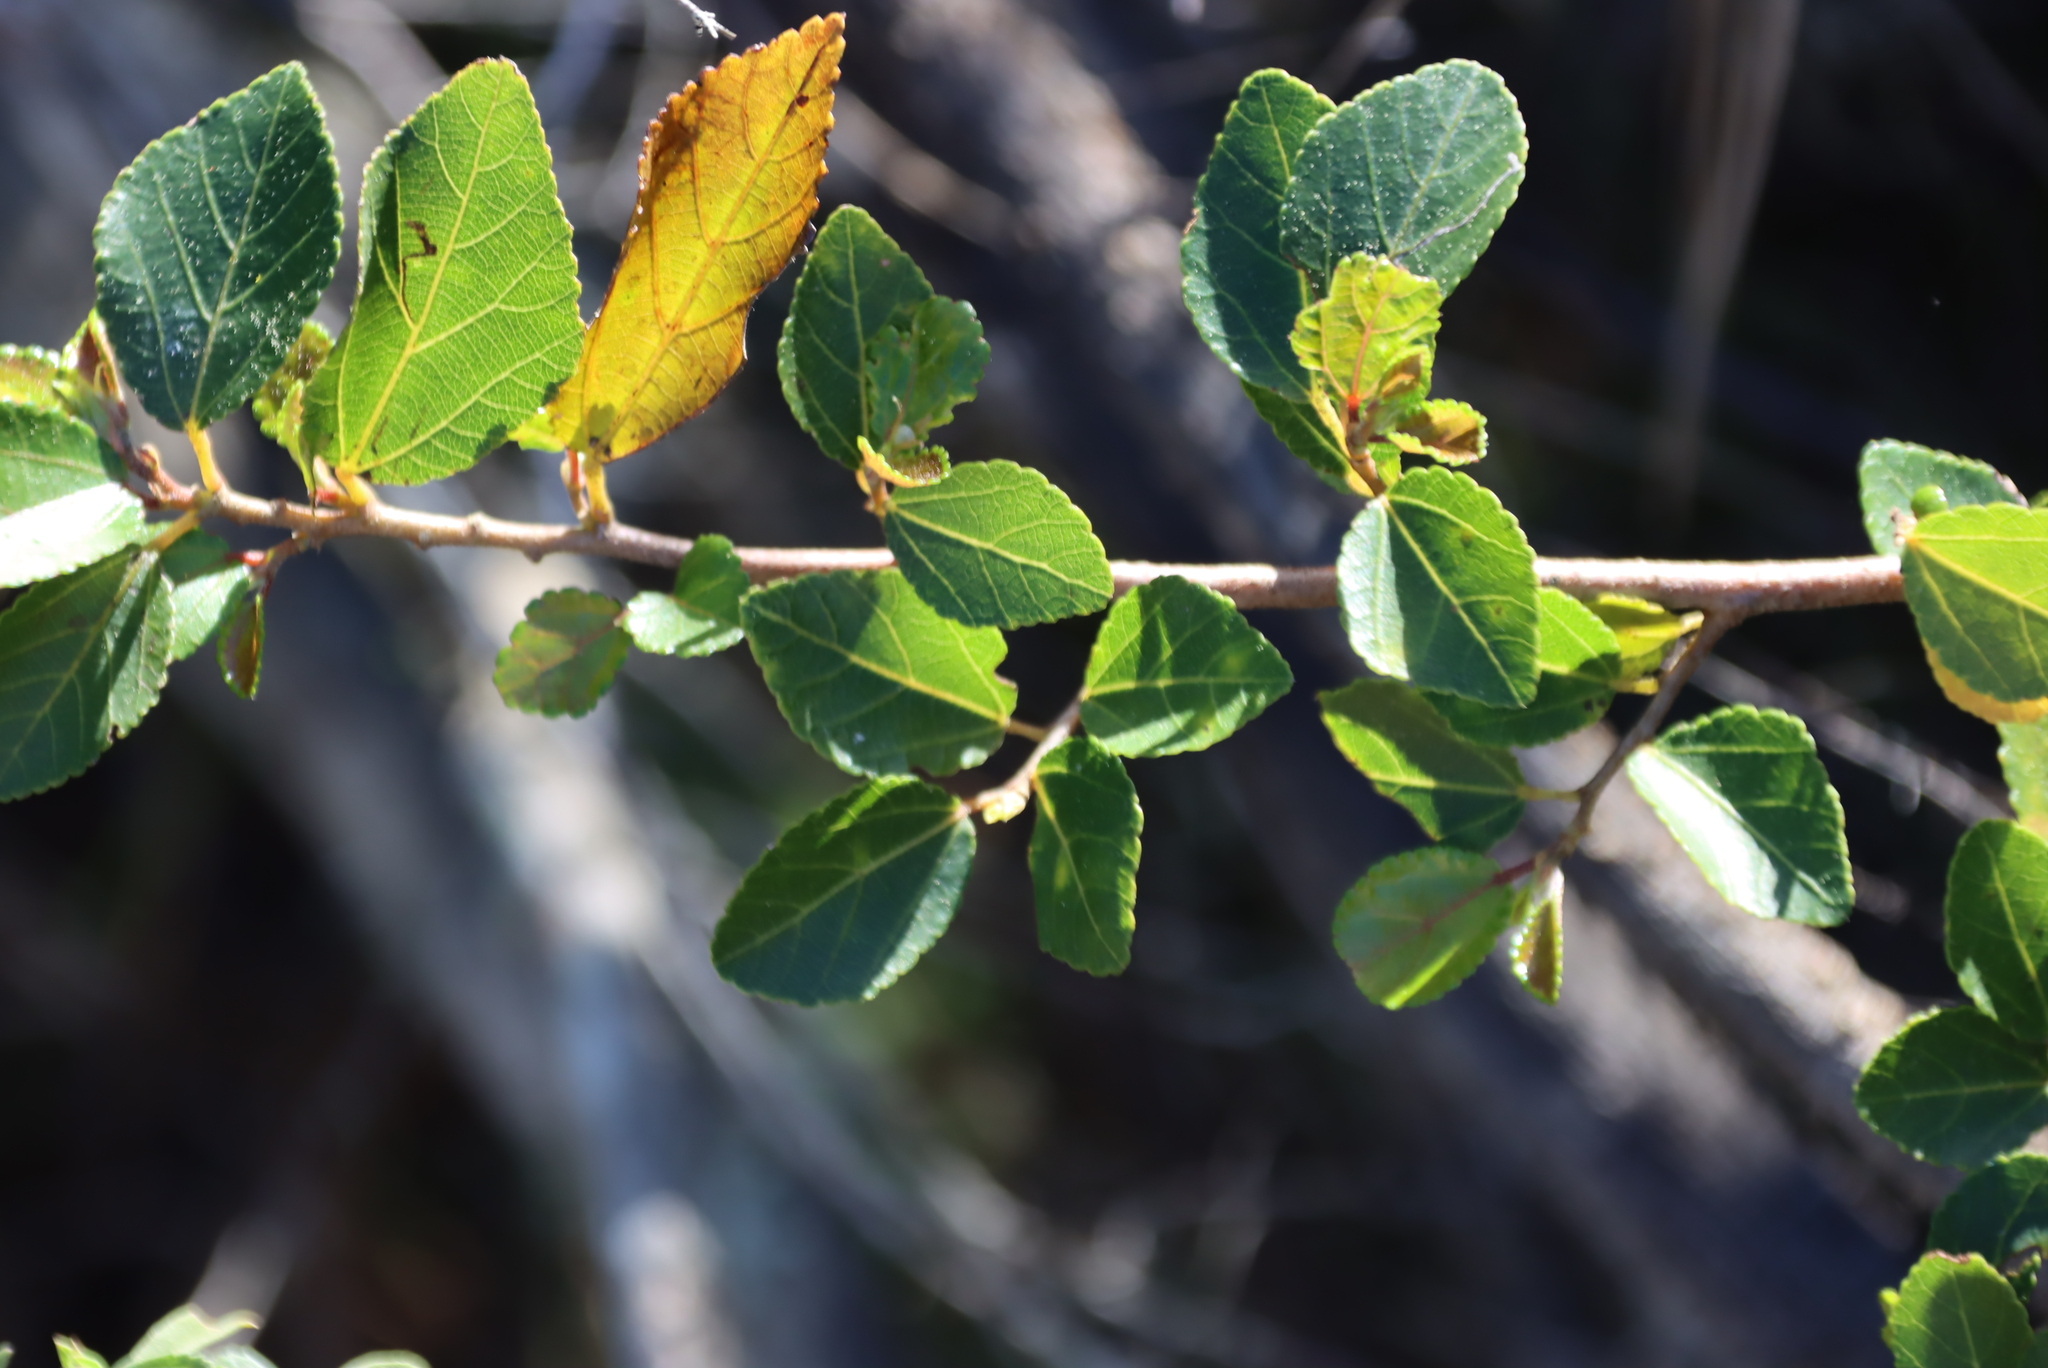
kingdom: Plantae
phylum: Tracheophyta
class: Magnoliopsida
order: Malvales
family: Malvaceae
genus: Grewia
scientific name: Grewia occidentalis
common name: Crossberry
